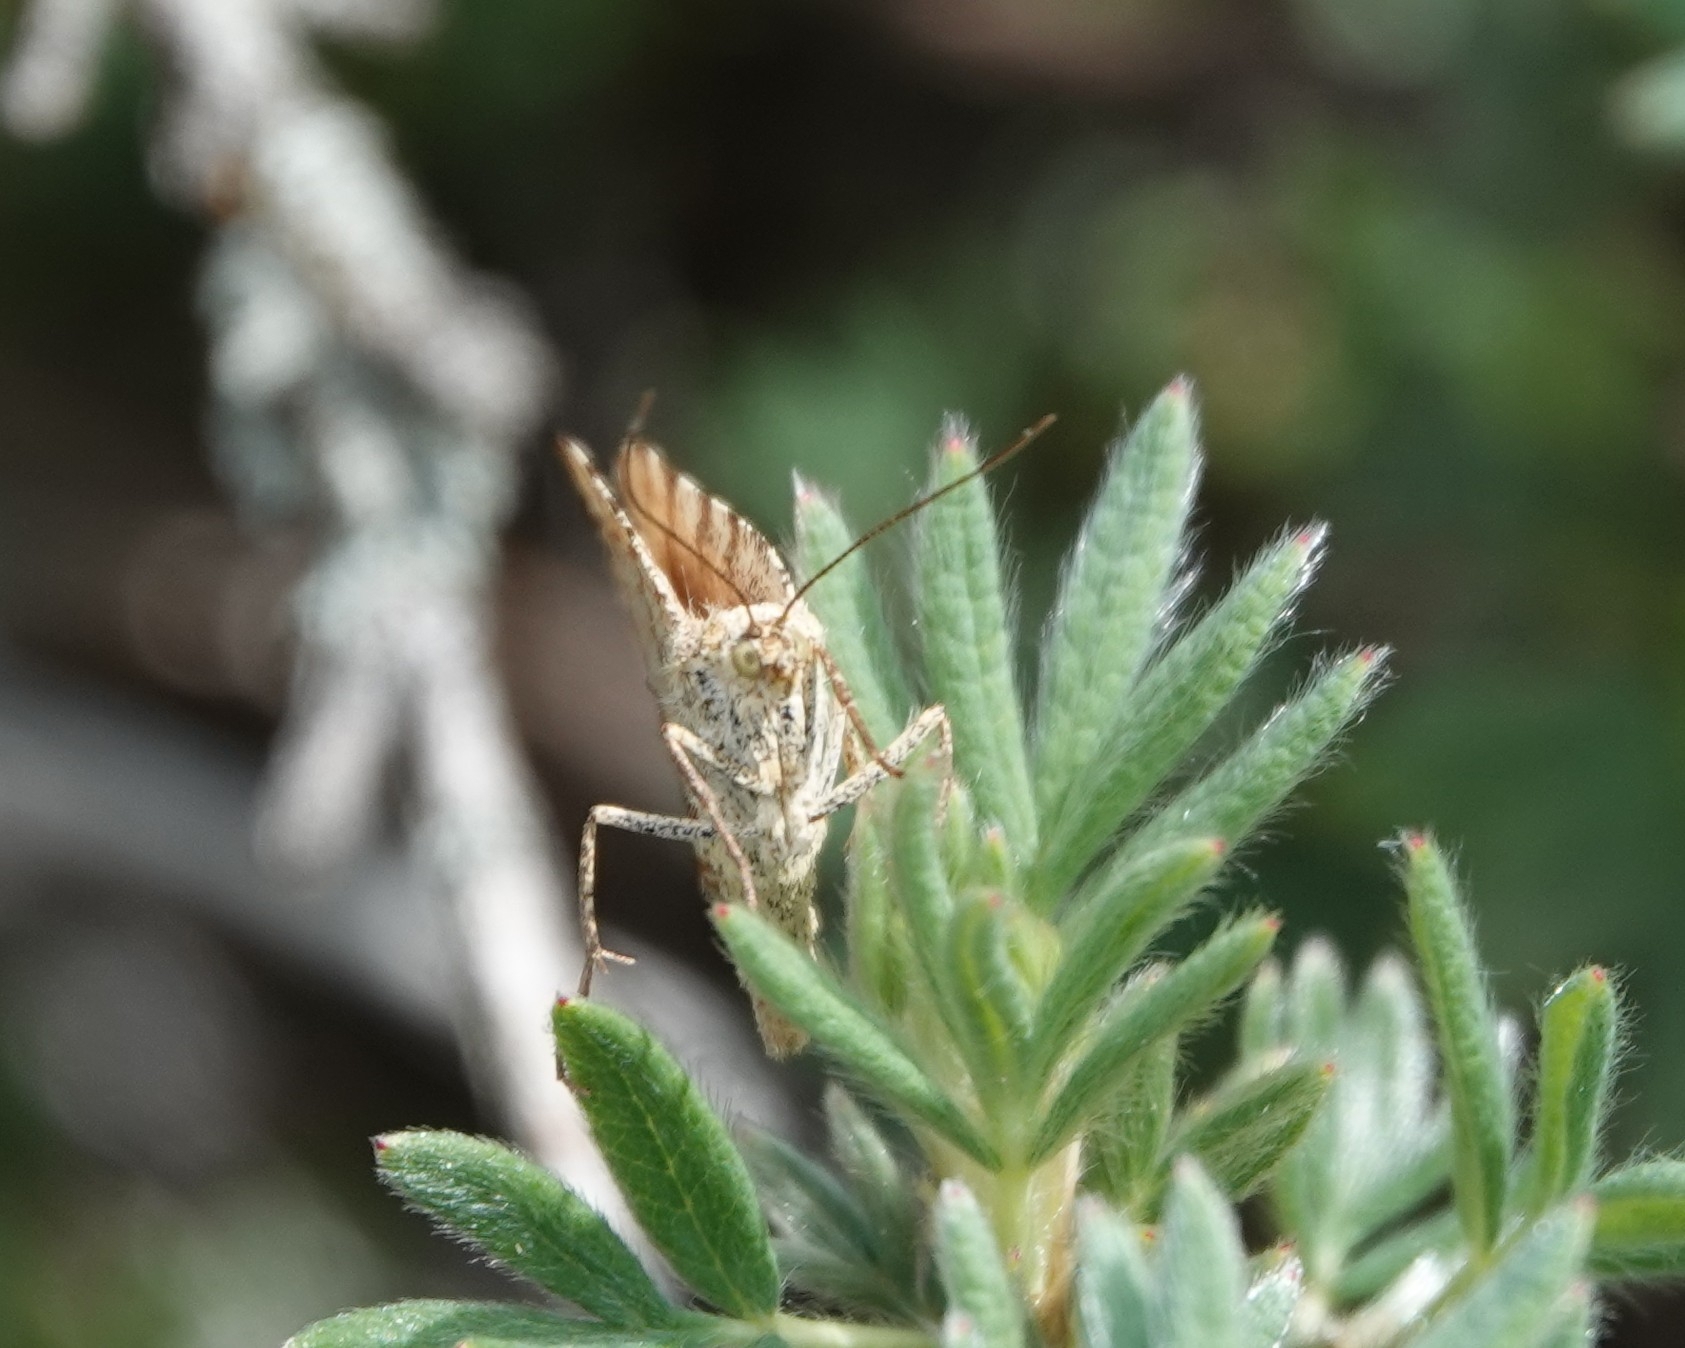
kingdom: Animalia
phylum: Arthropoda
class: Insecta
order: Lepidoptera
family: Geometridae
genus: Macaria
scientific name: Macaria brunneata
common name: Rannoch looper
